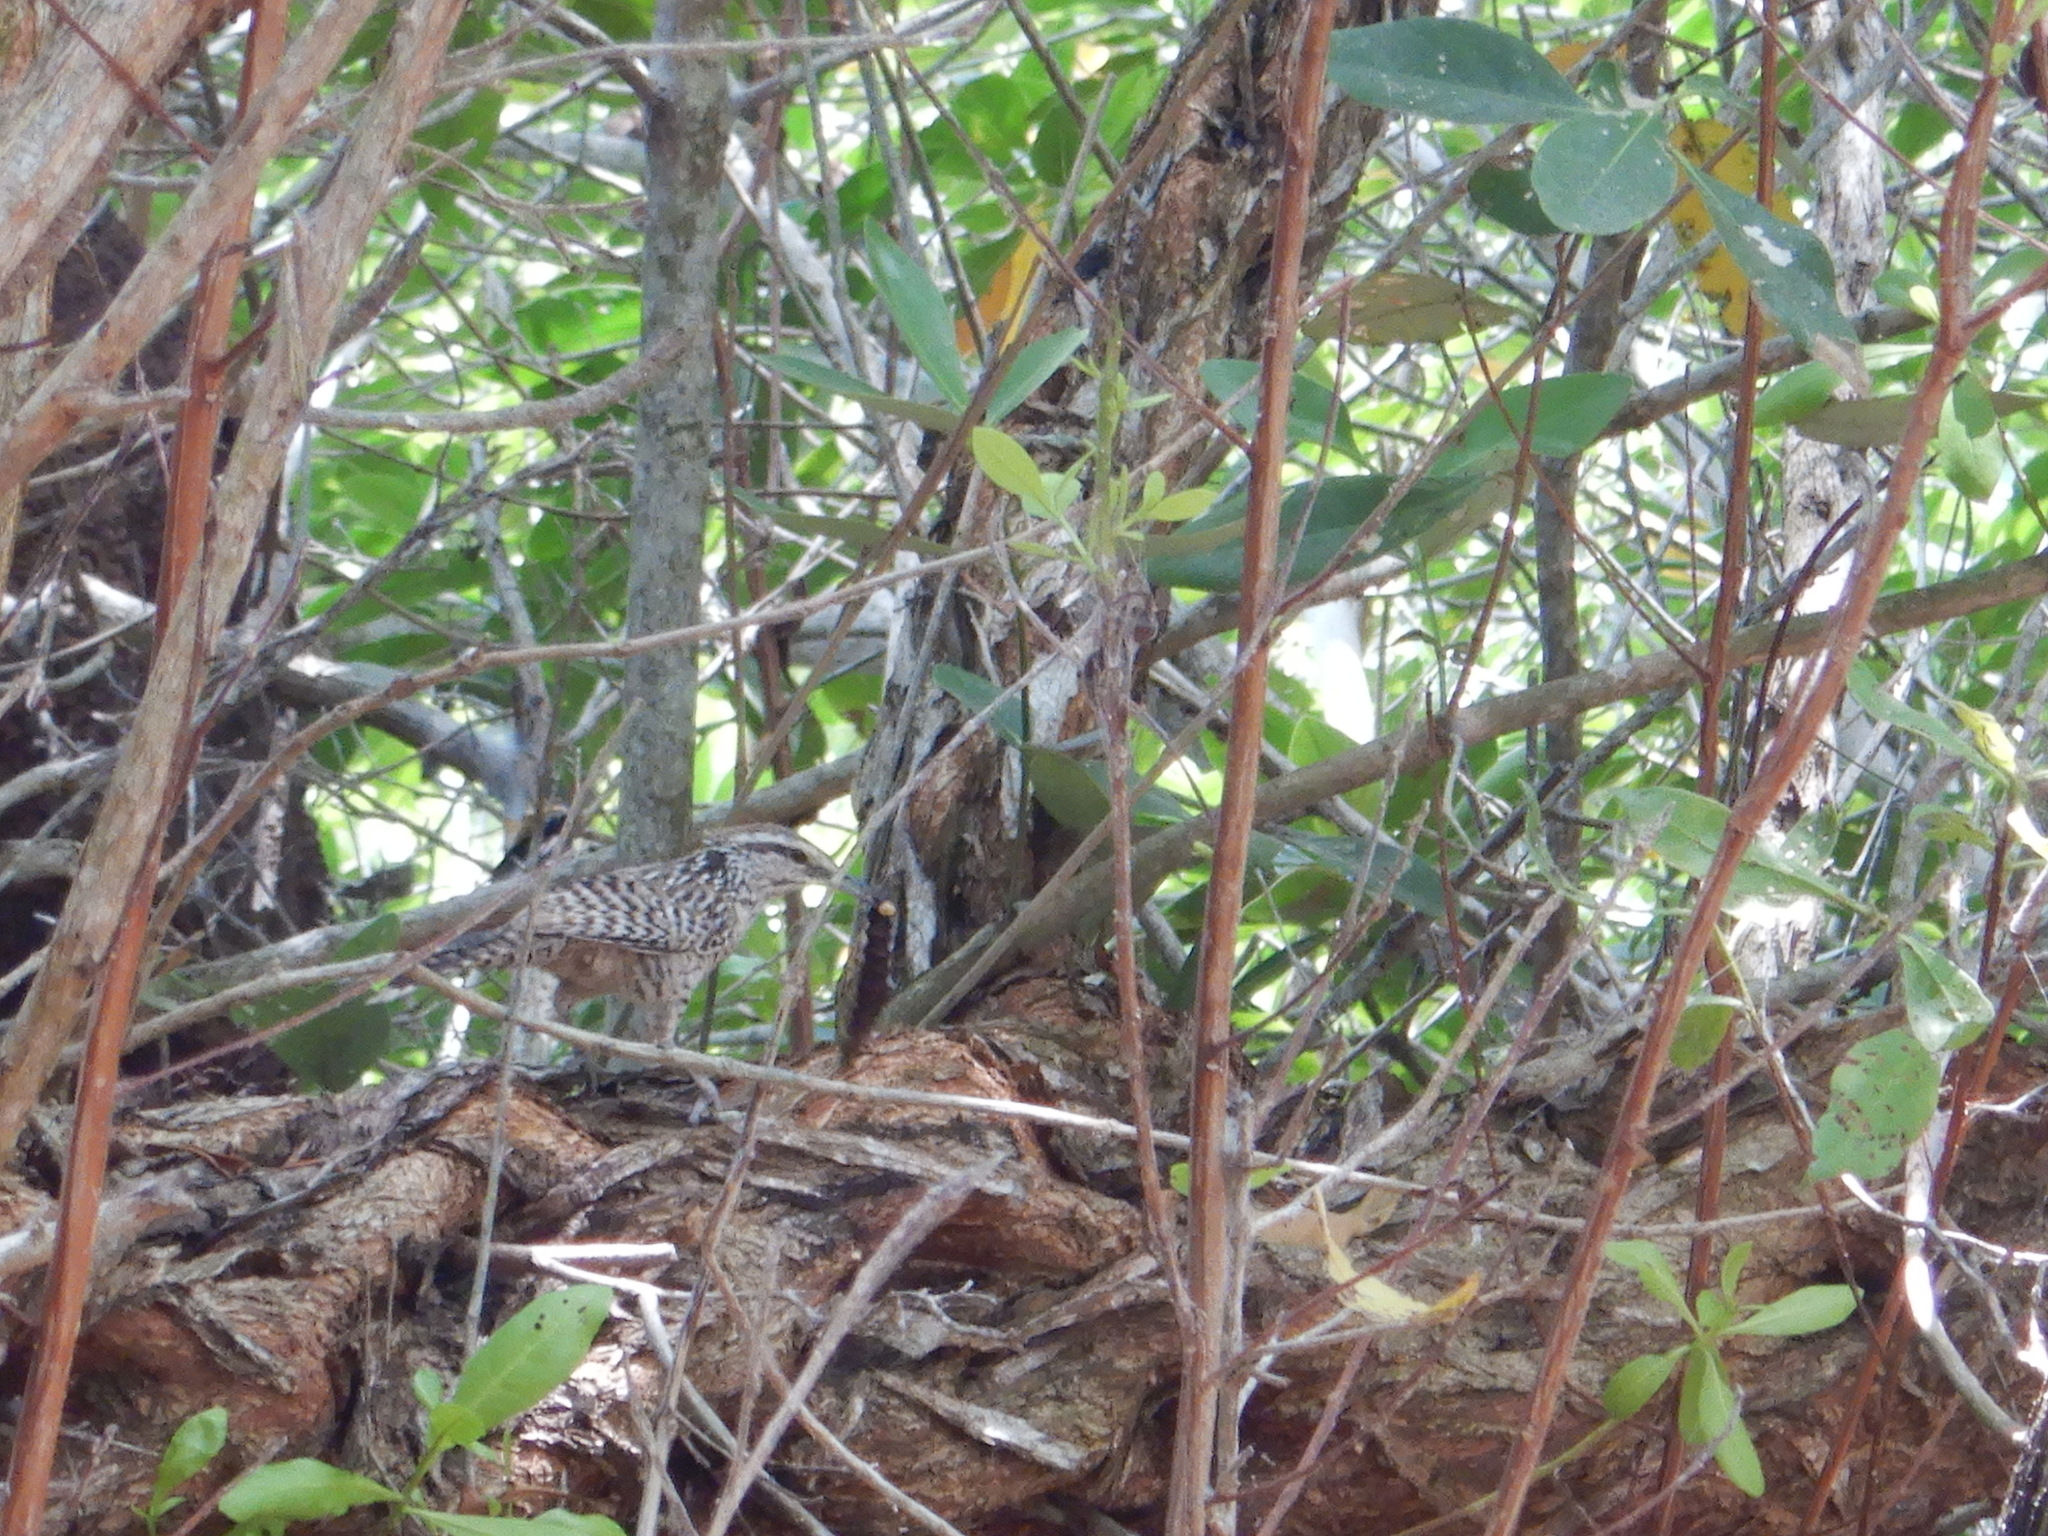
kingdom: Animalia
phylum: Chordata
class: Aves
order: Passeriformes
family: Troglodytidae
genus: Campylorhynchus
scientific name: Campylorhynchus yucatanicus
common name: Yucatan wren
